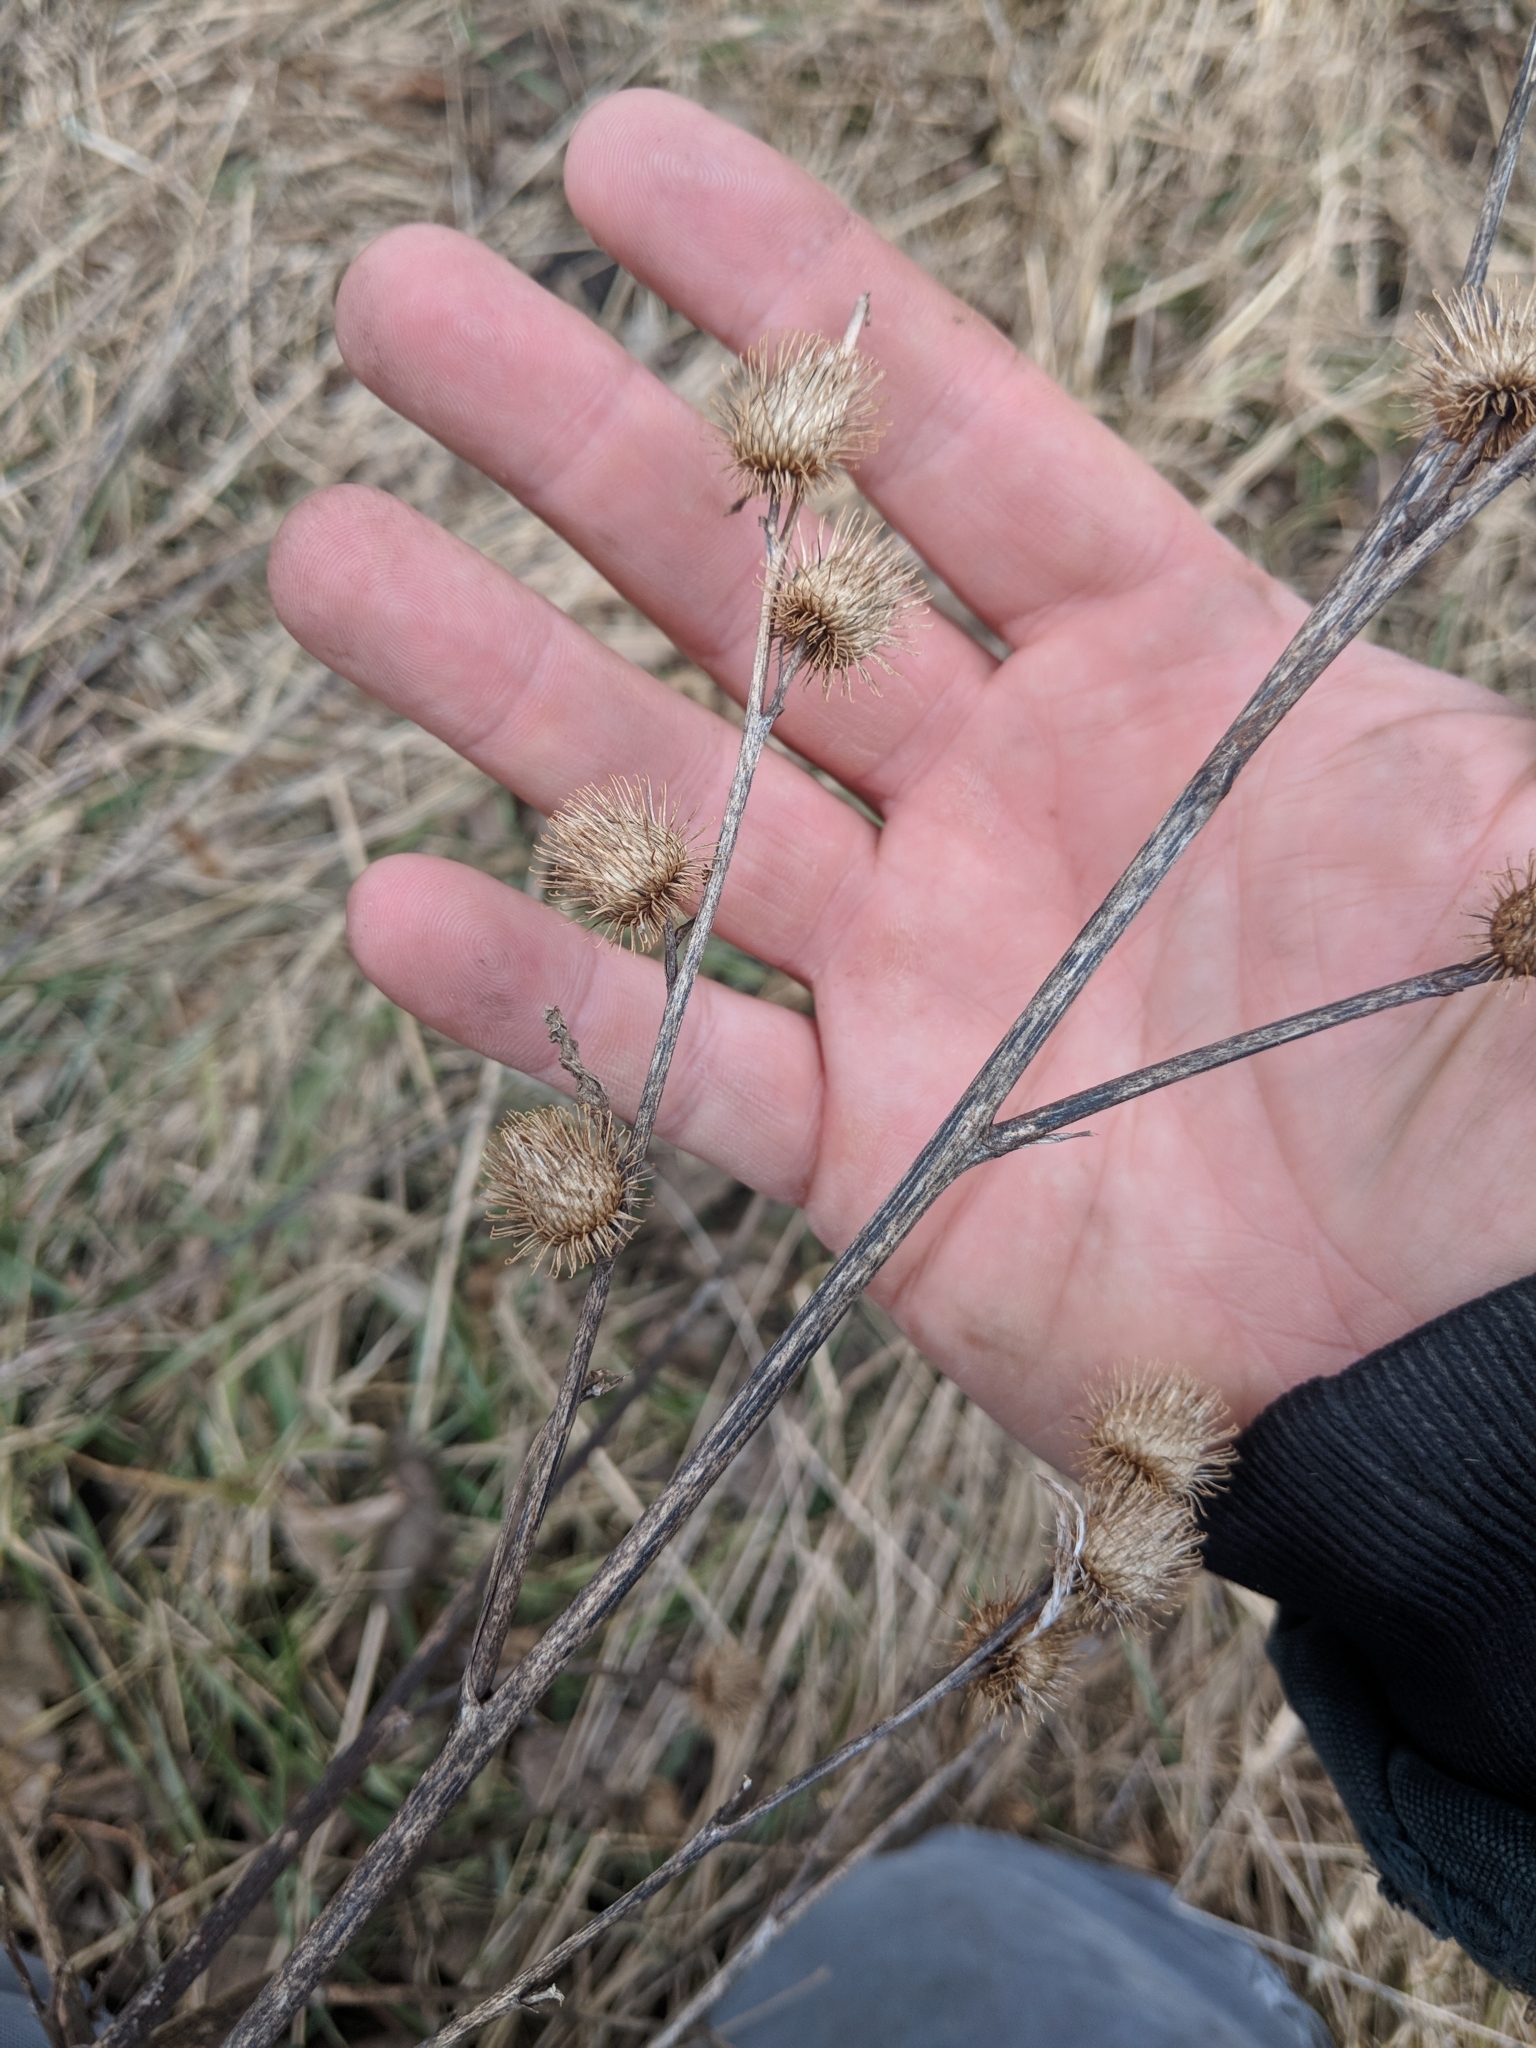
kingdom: Plantae
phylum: Tracheophyta
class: Magnoliopsida
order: Asterales
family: Asteraceae
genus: Arctium
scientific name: Arctium minus
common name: Lesser burdock
